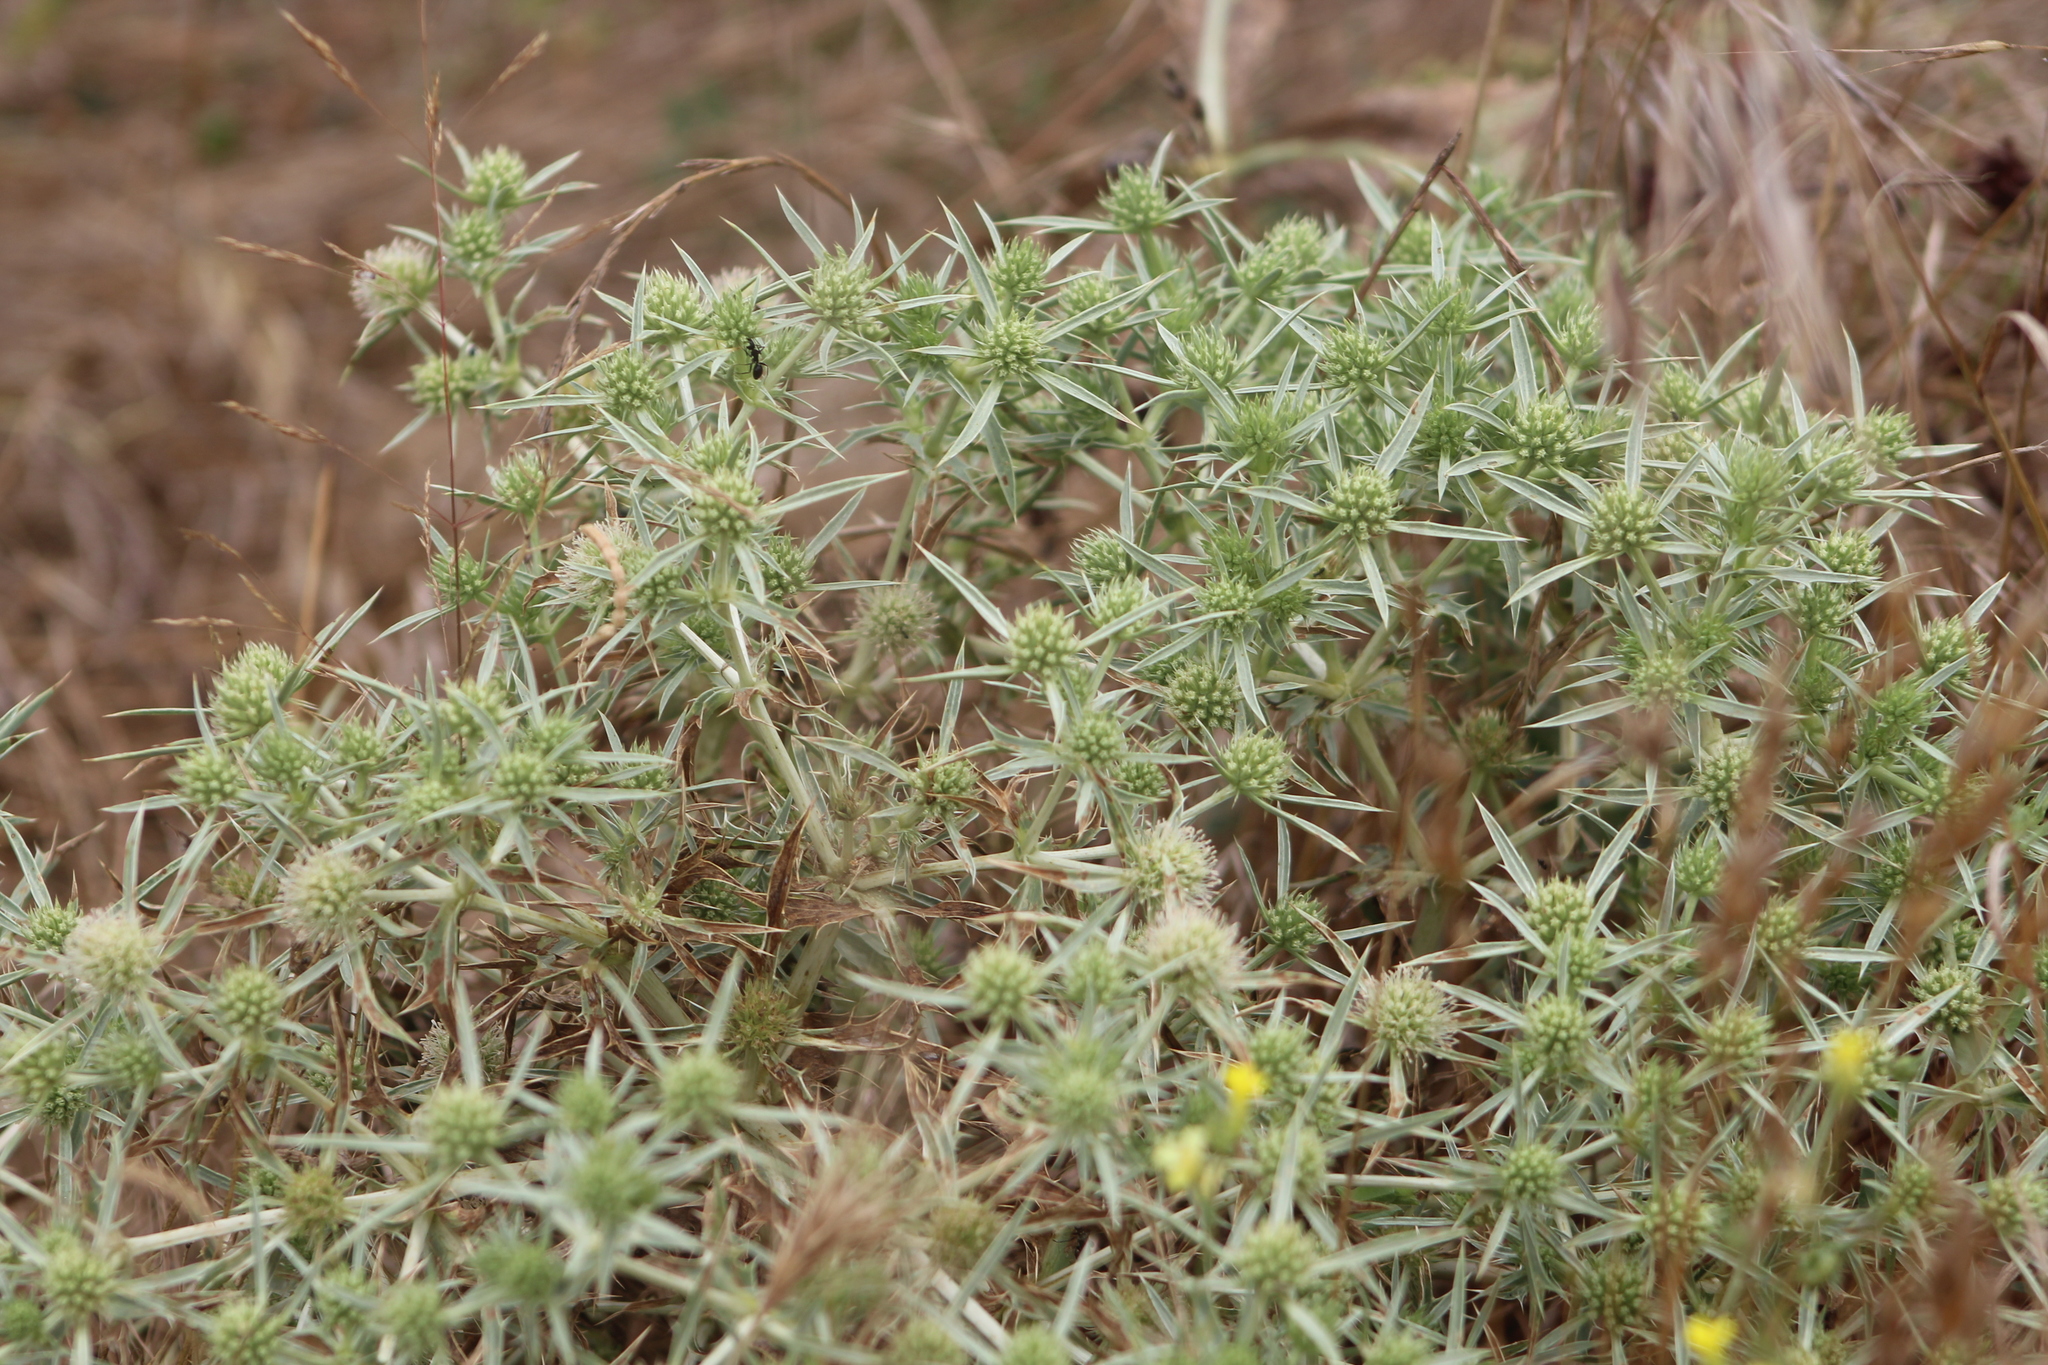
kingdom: Plantae
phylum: Tracheophyta
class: Magnoliopsida
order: Apiales
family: Apiaceae
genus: Eryngium
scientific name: Eryngium campestre
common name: Field eryngo
